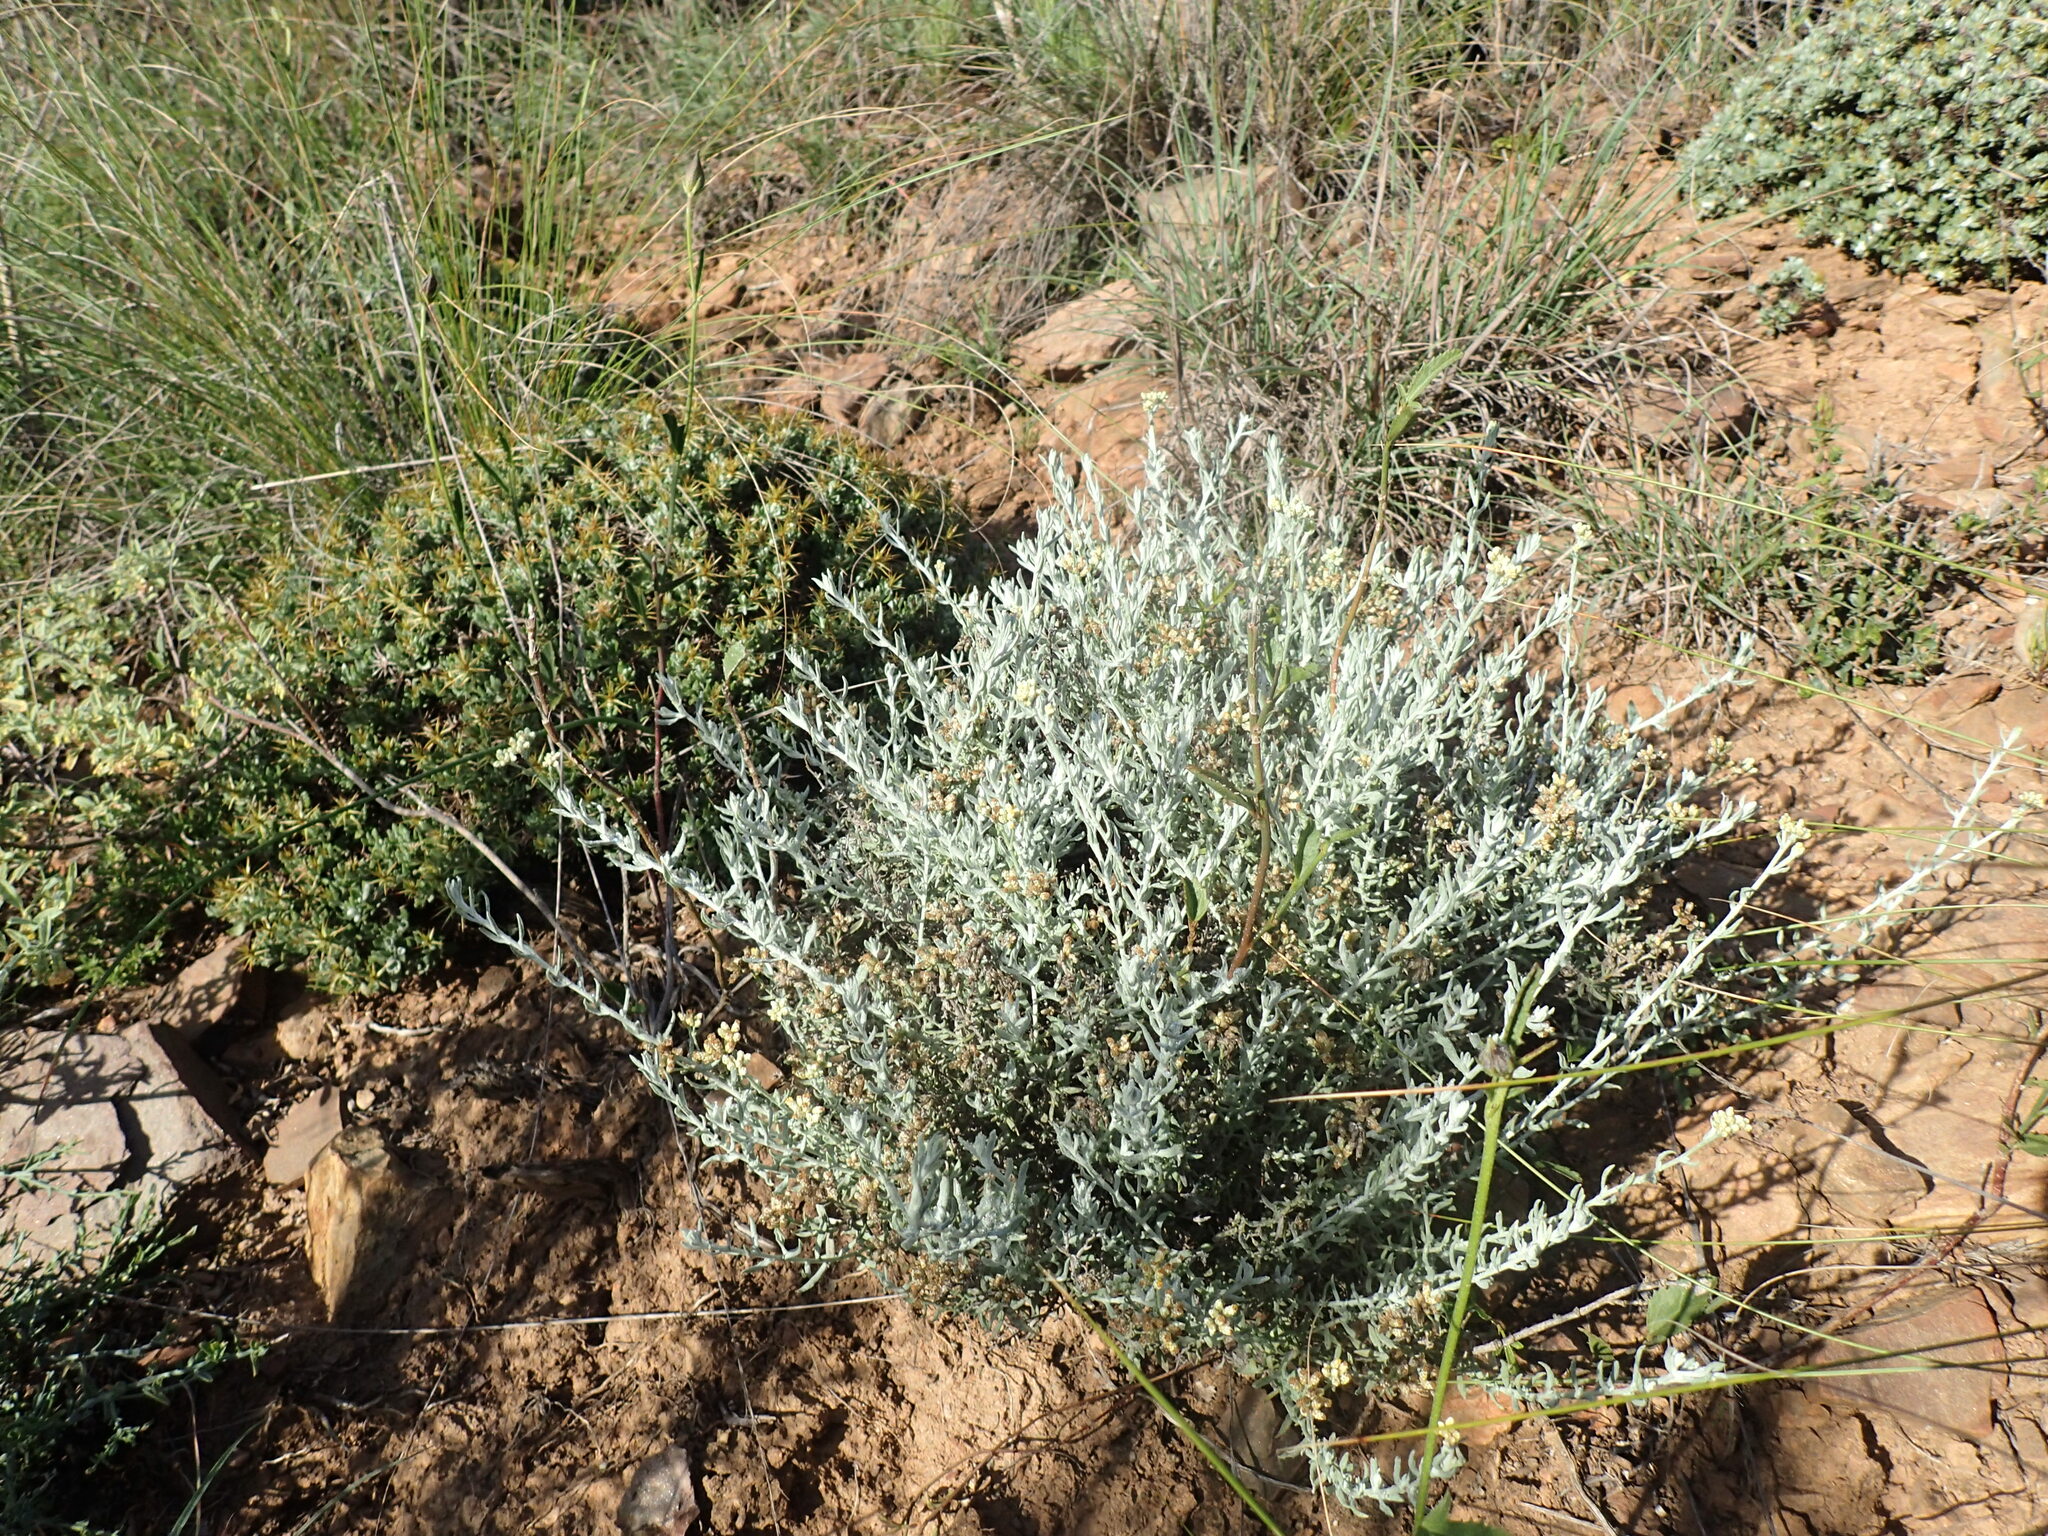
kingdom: Plantae
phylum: Tracheophyta
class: Magnoliopsida
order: Asterales
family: Asteraceae
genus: Helichrysum
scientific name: Helichrysum rosum
